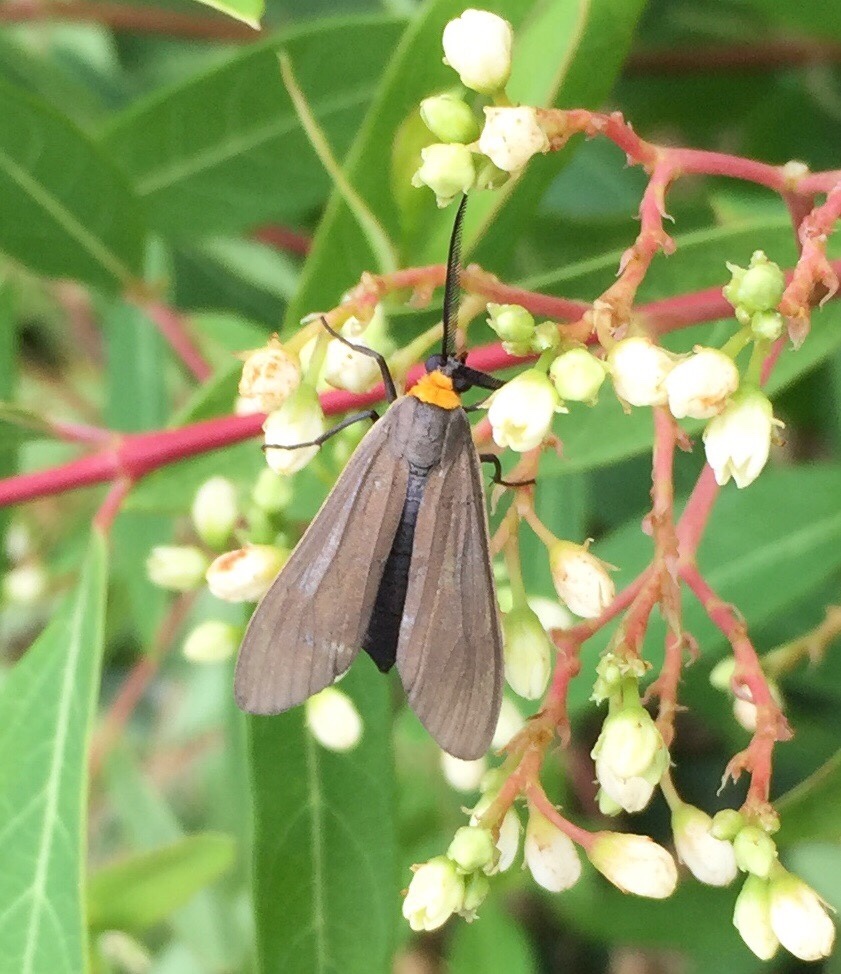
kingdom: Animalia
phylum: Arthropoda
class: Insecta
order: Lepidoptera
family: Erebidae
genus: Cisseps
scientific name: Cisseps fulvicollis
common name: Yellow-collared scape moth
